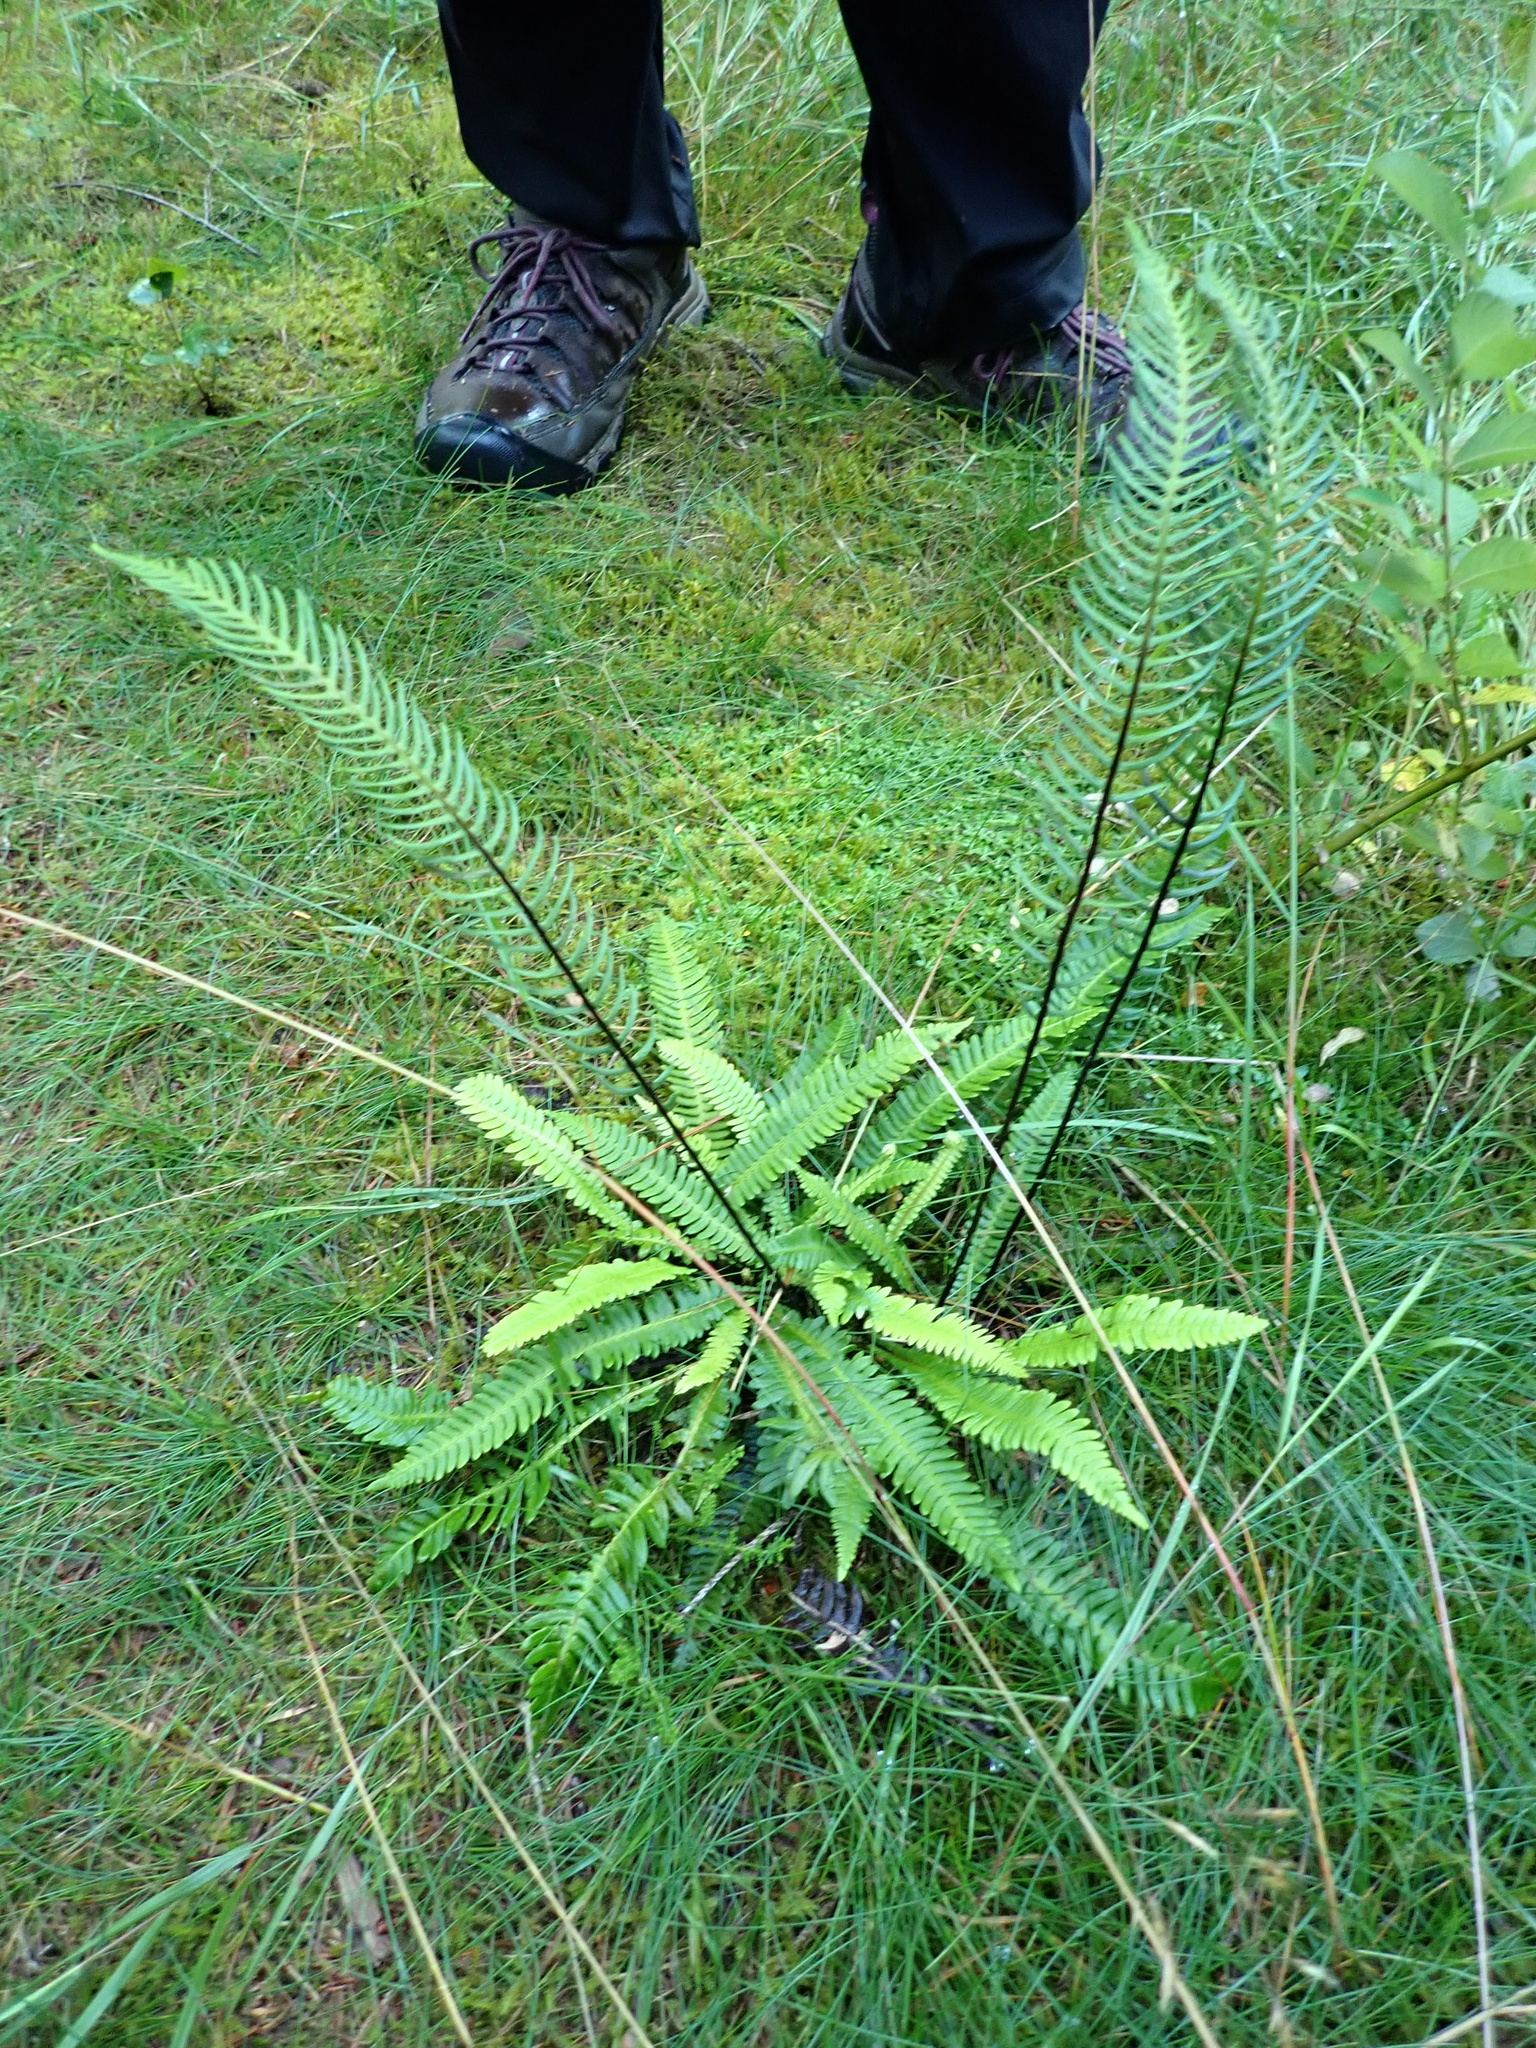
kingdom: Plantae
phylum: Tracheophyta
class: Polypodiopsida
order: Polypodiales
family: Blechnaceae
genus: Struthiopteris
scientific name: Struthiopteris spicant
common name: Deer fern
